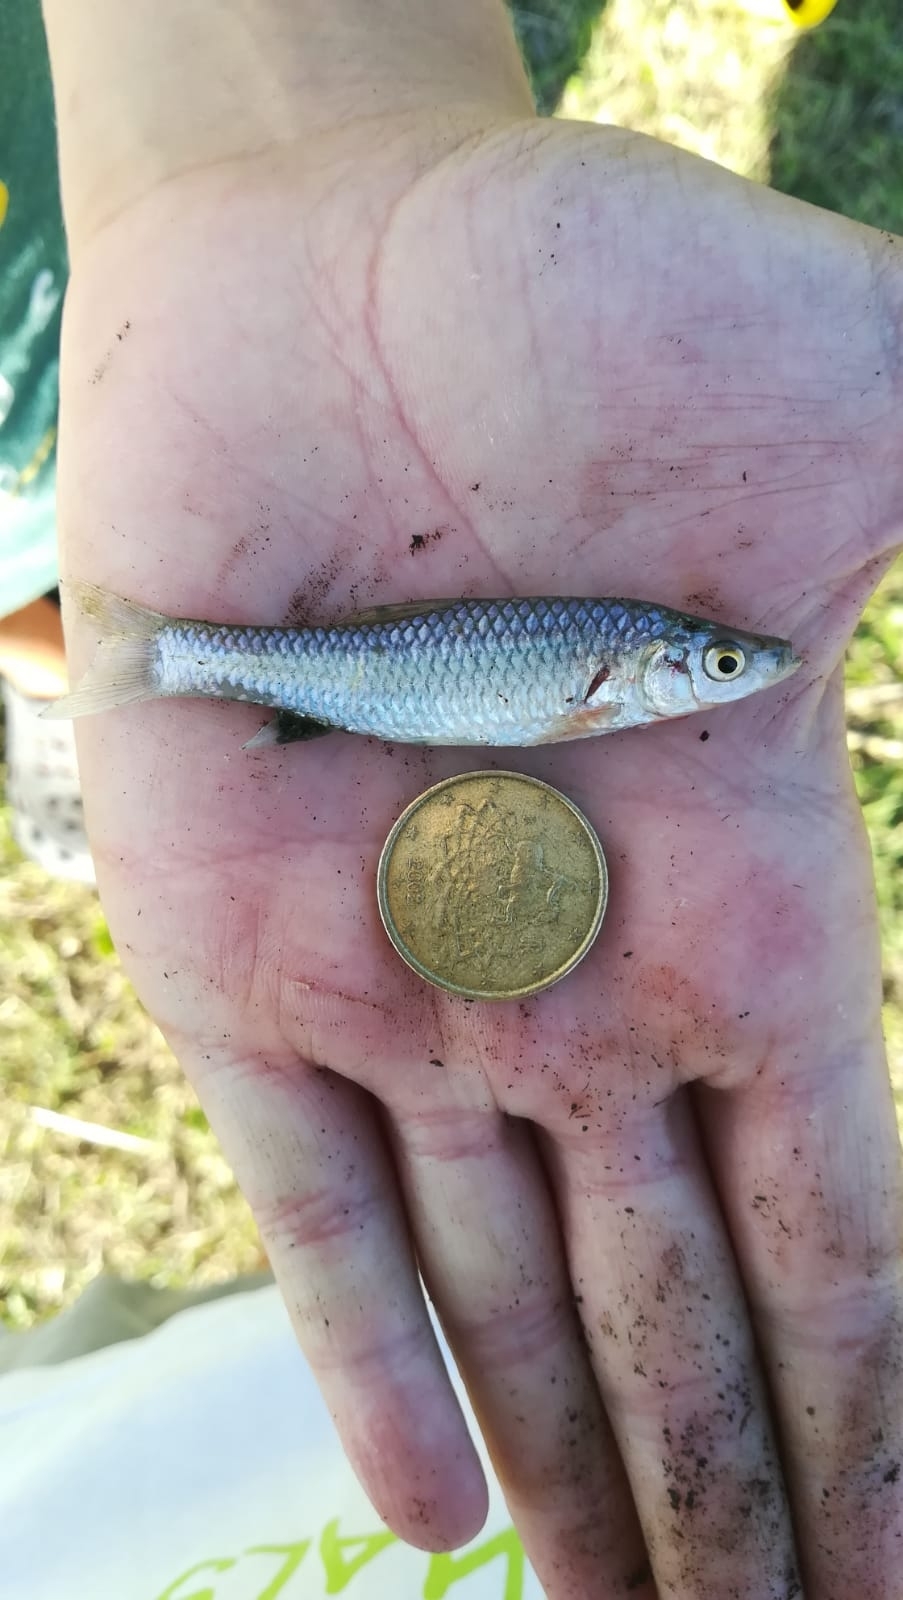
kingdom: Animalia
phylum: Chordata
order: Cypriniformes
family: Cyprinidae
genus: Pseudorasbora
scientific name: Pseudorasbora parva
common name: Topmouth gudgeon
